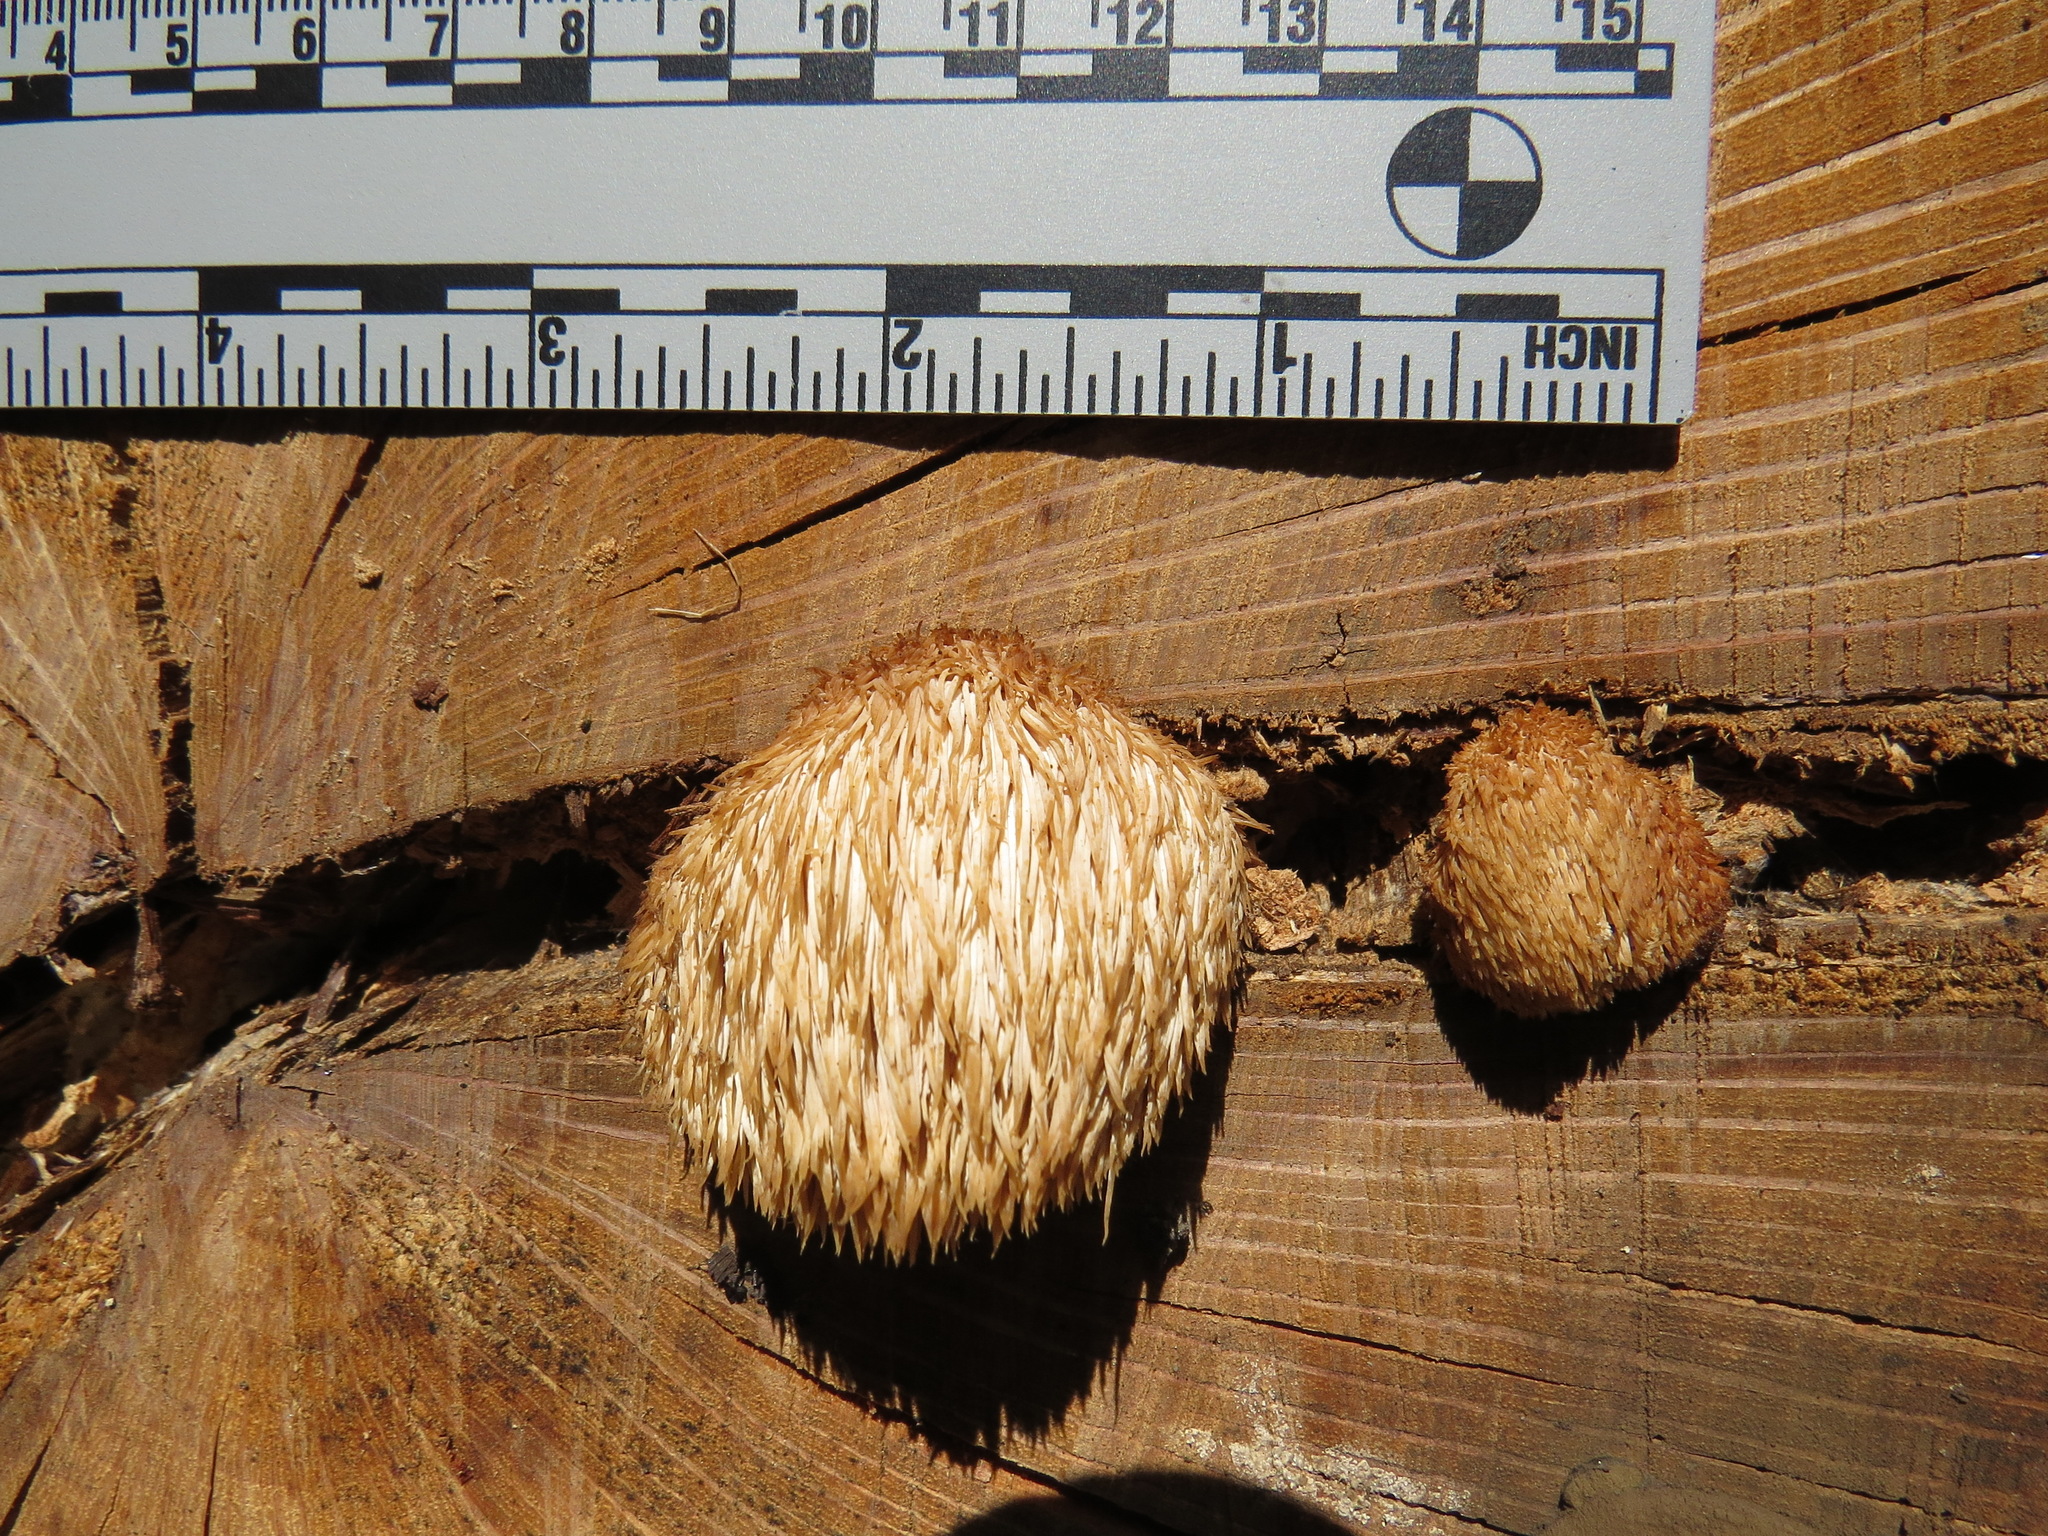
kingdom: Fungi
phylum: Basidiomycota
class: Agaricomycetes
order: Russulales
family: Hericiaceae
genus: Hericium
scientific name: Hericium erinaceus
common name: Bearded tooth
